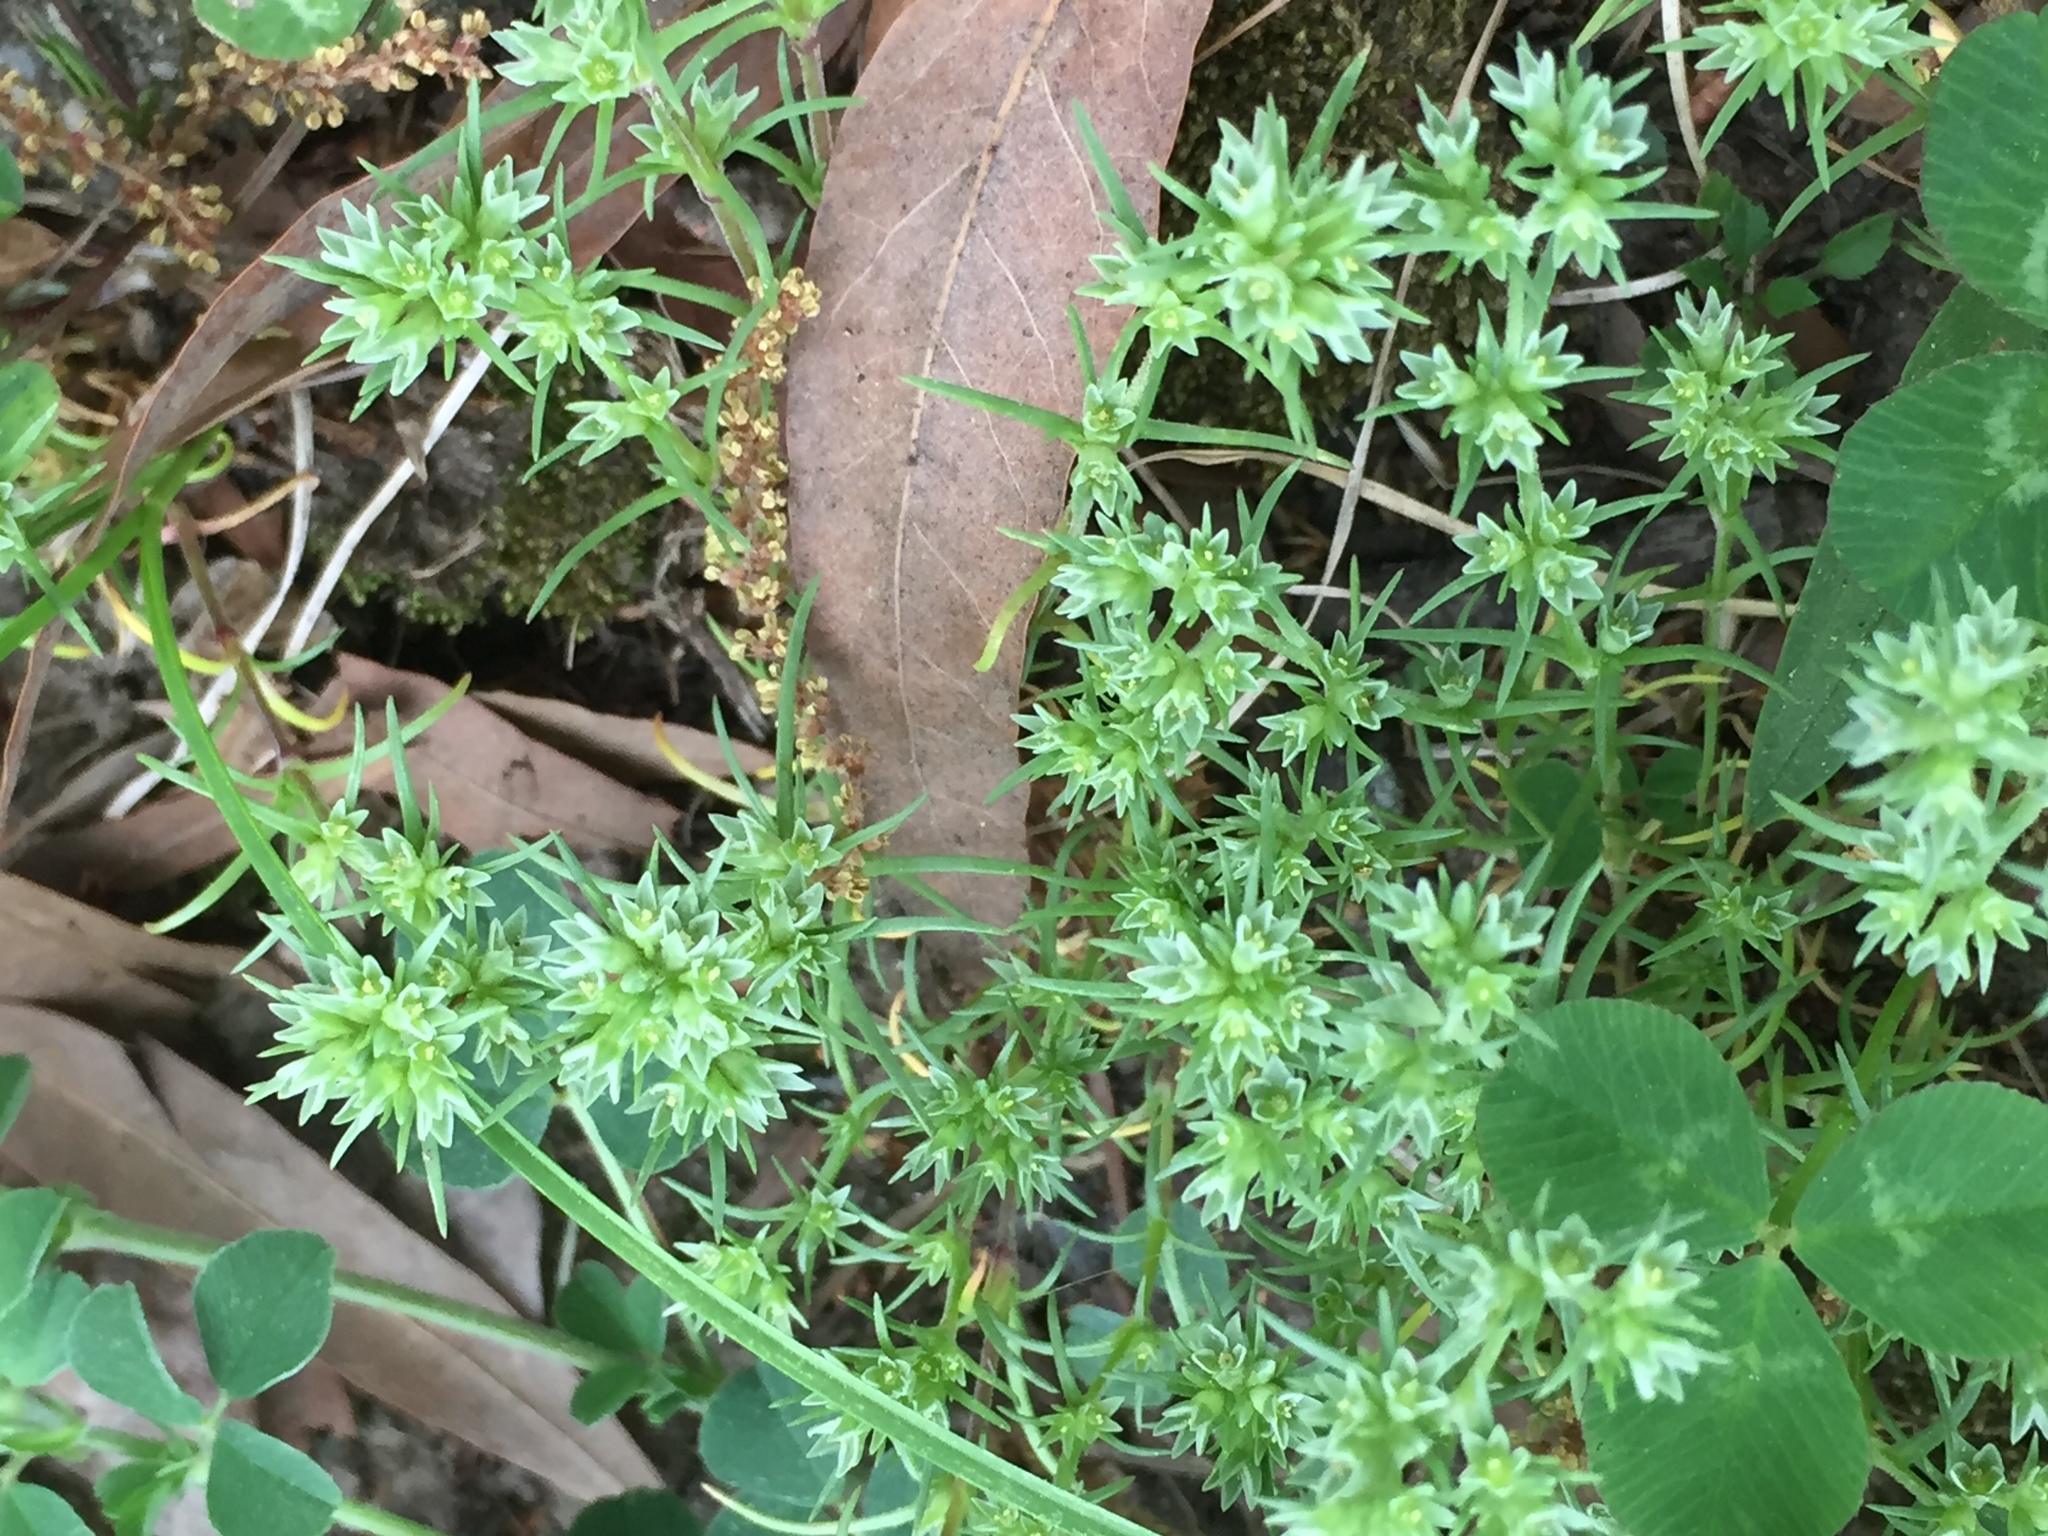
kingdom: Plantae
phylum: Tracheophyta
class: Magnoliopsida
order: Caryophyllales
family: Caryophyllaceae
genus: Scleranthus
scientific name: Scleranthus annuus
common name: Annual knawel
